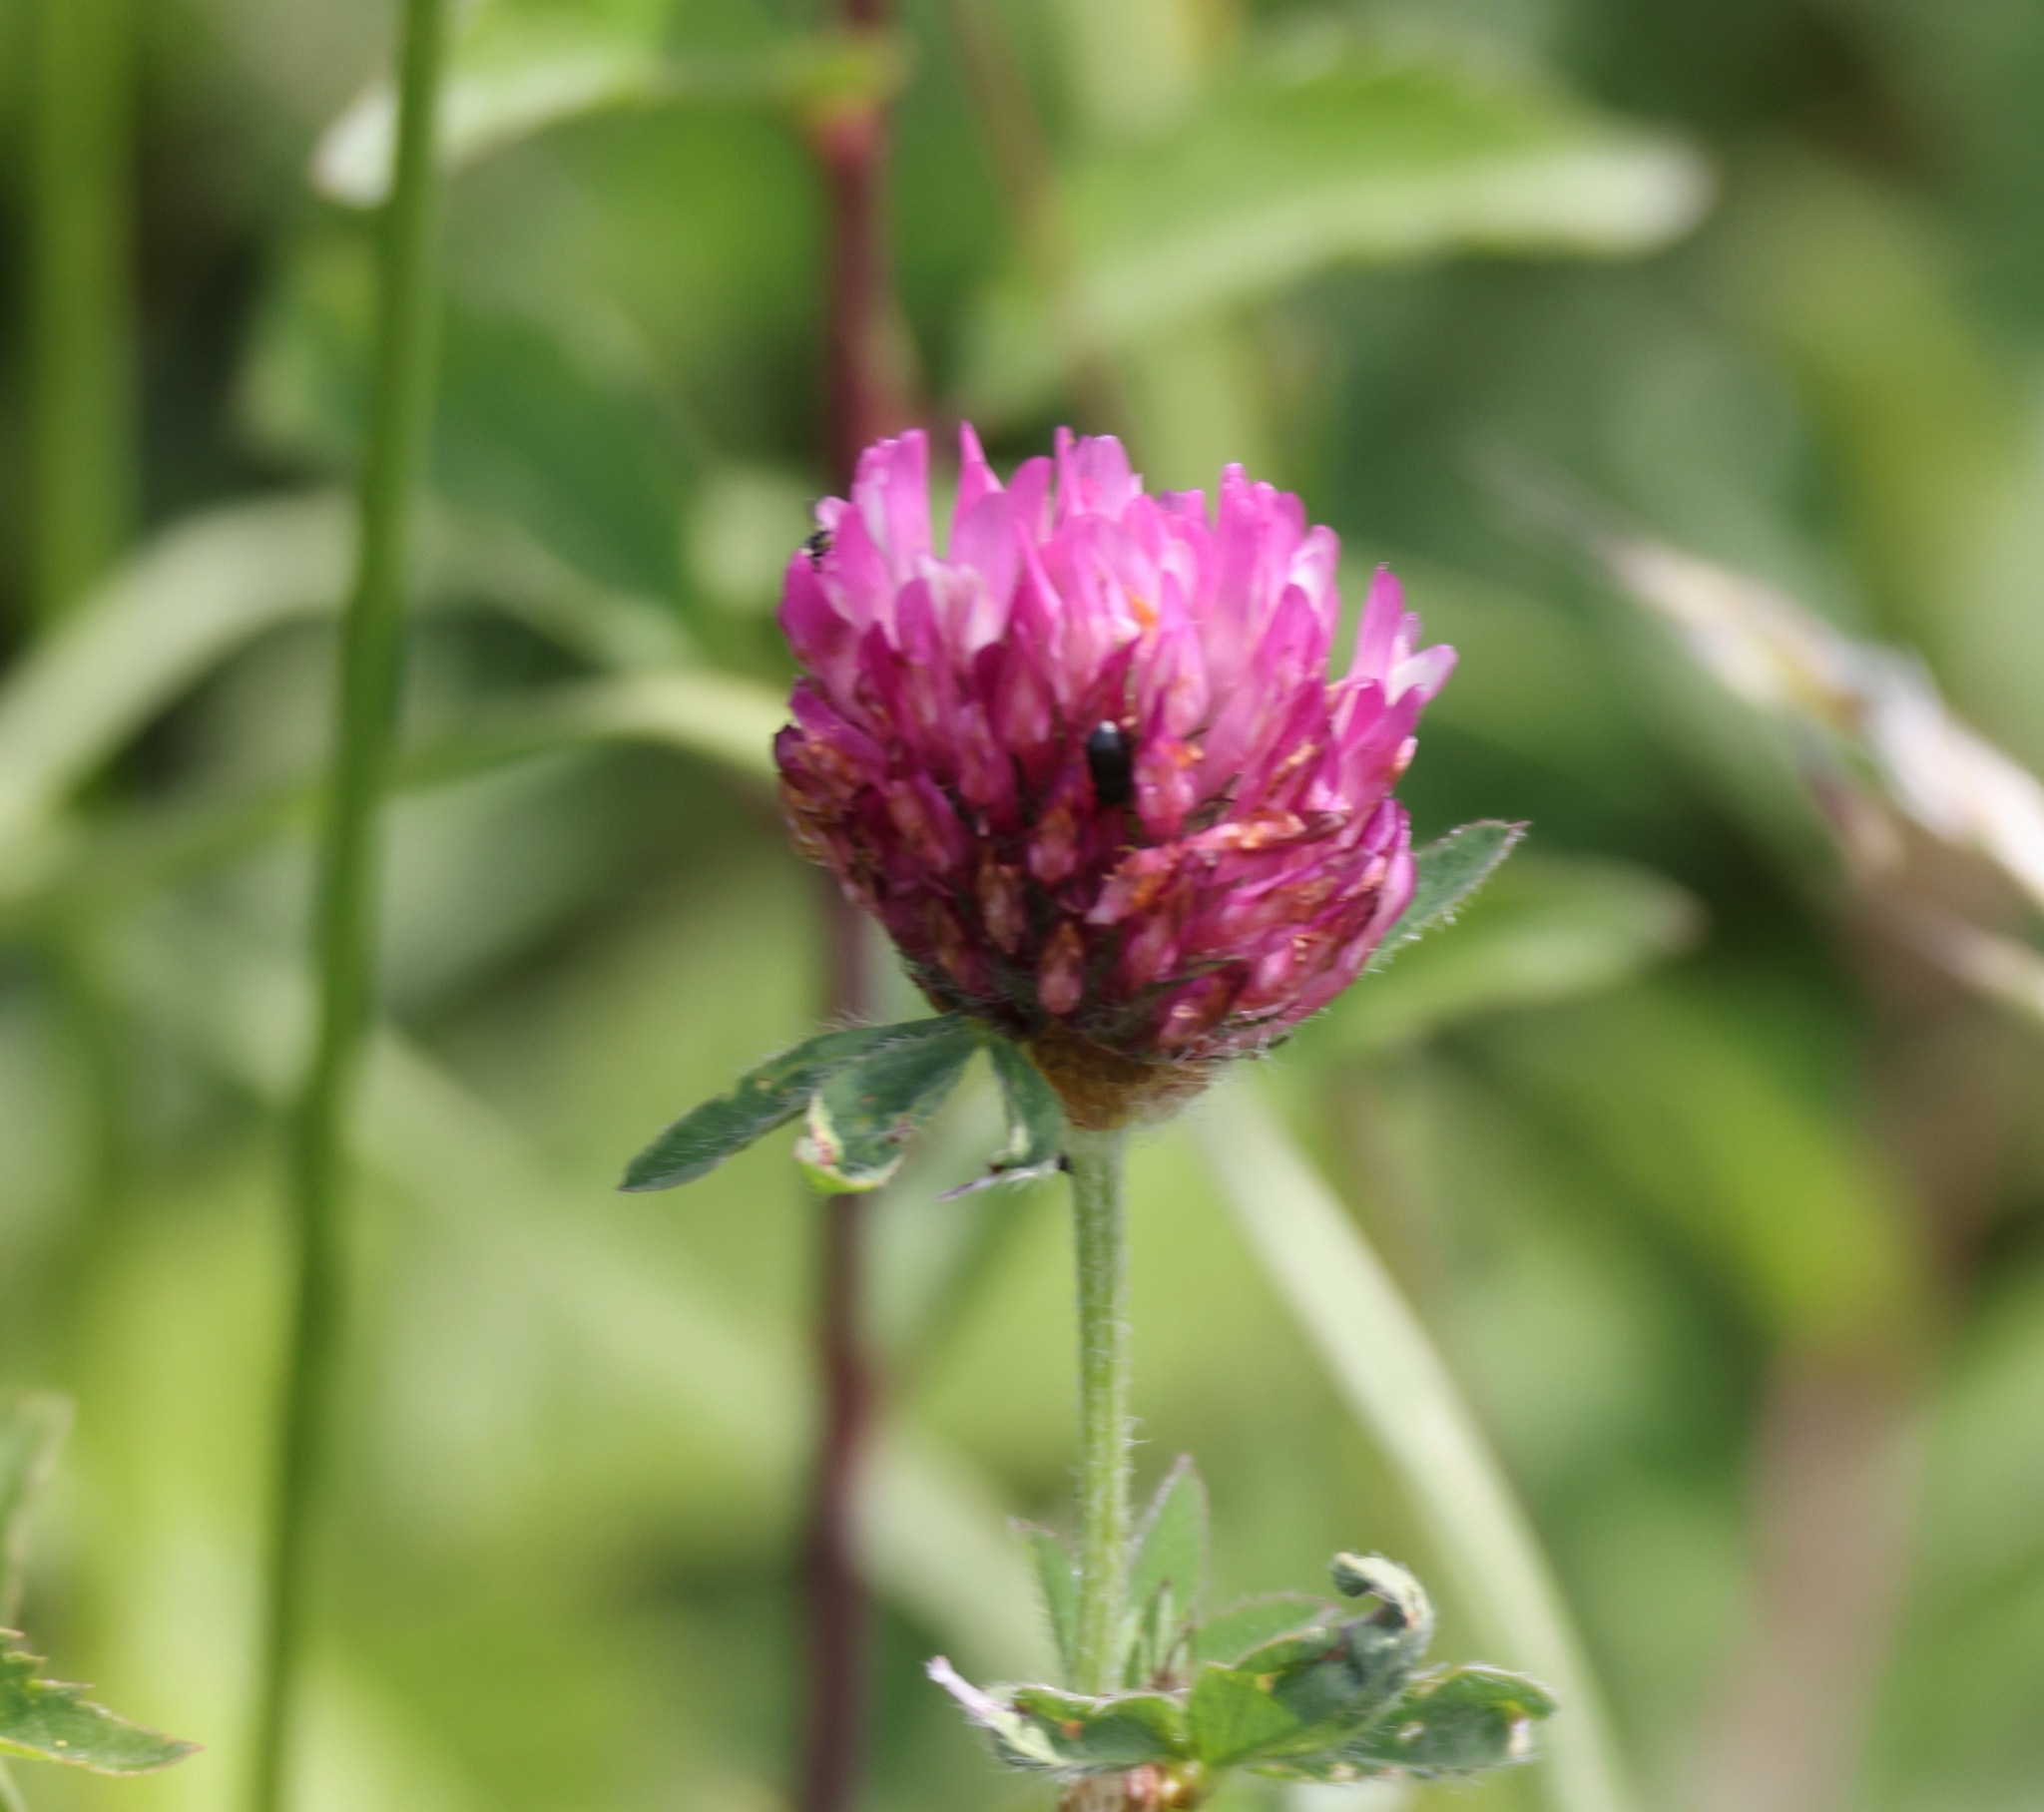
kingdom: Plantae
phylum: Tracheophyta
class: Magnoliopsida
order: Fabales
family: Fabaceae
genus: Trifolium
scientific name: Trifolium pratense
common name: Red clover
